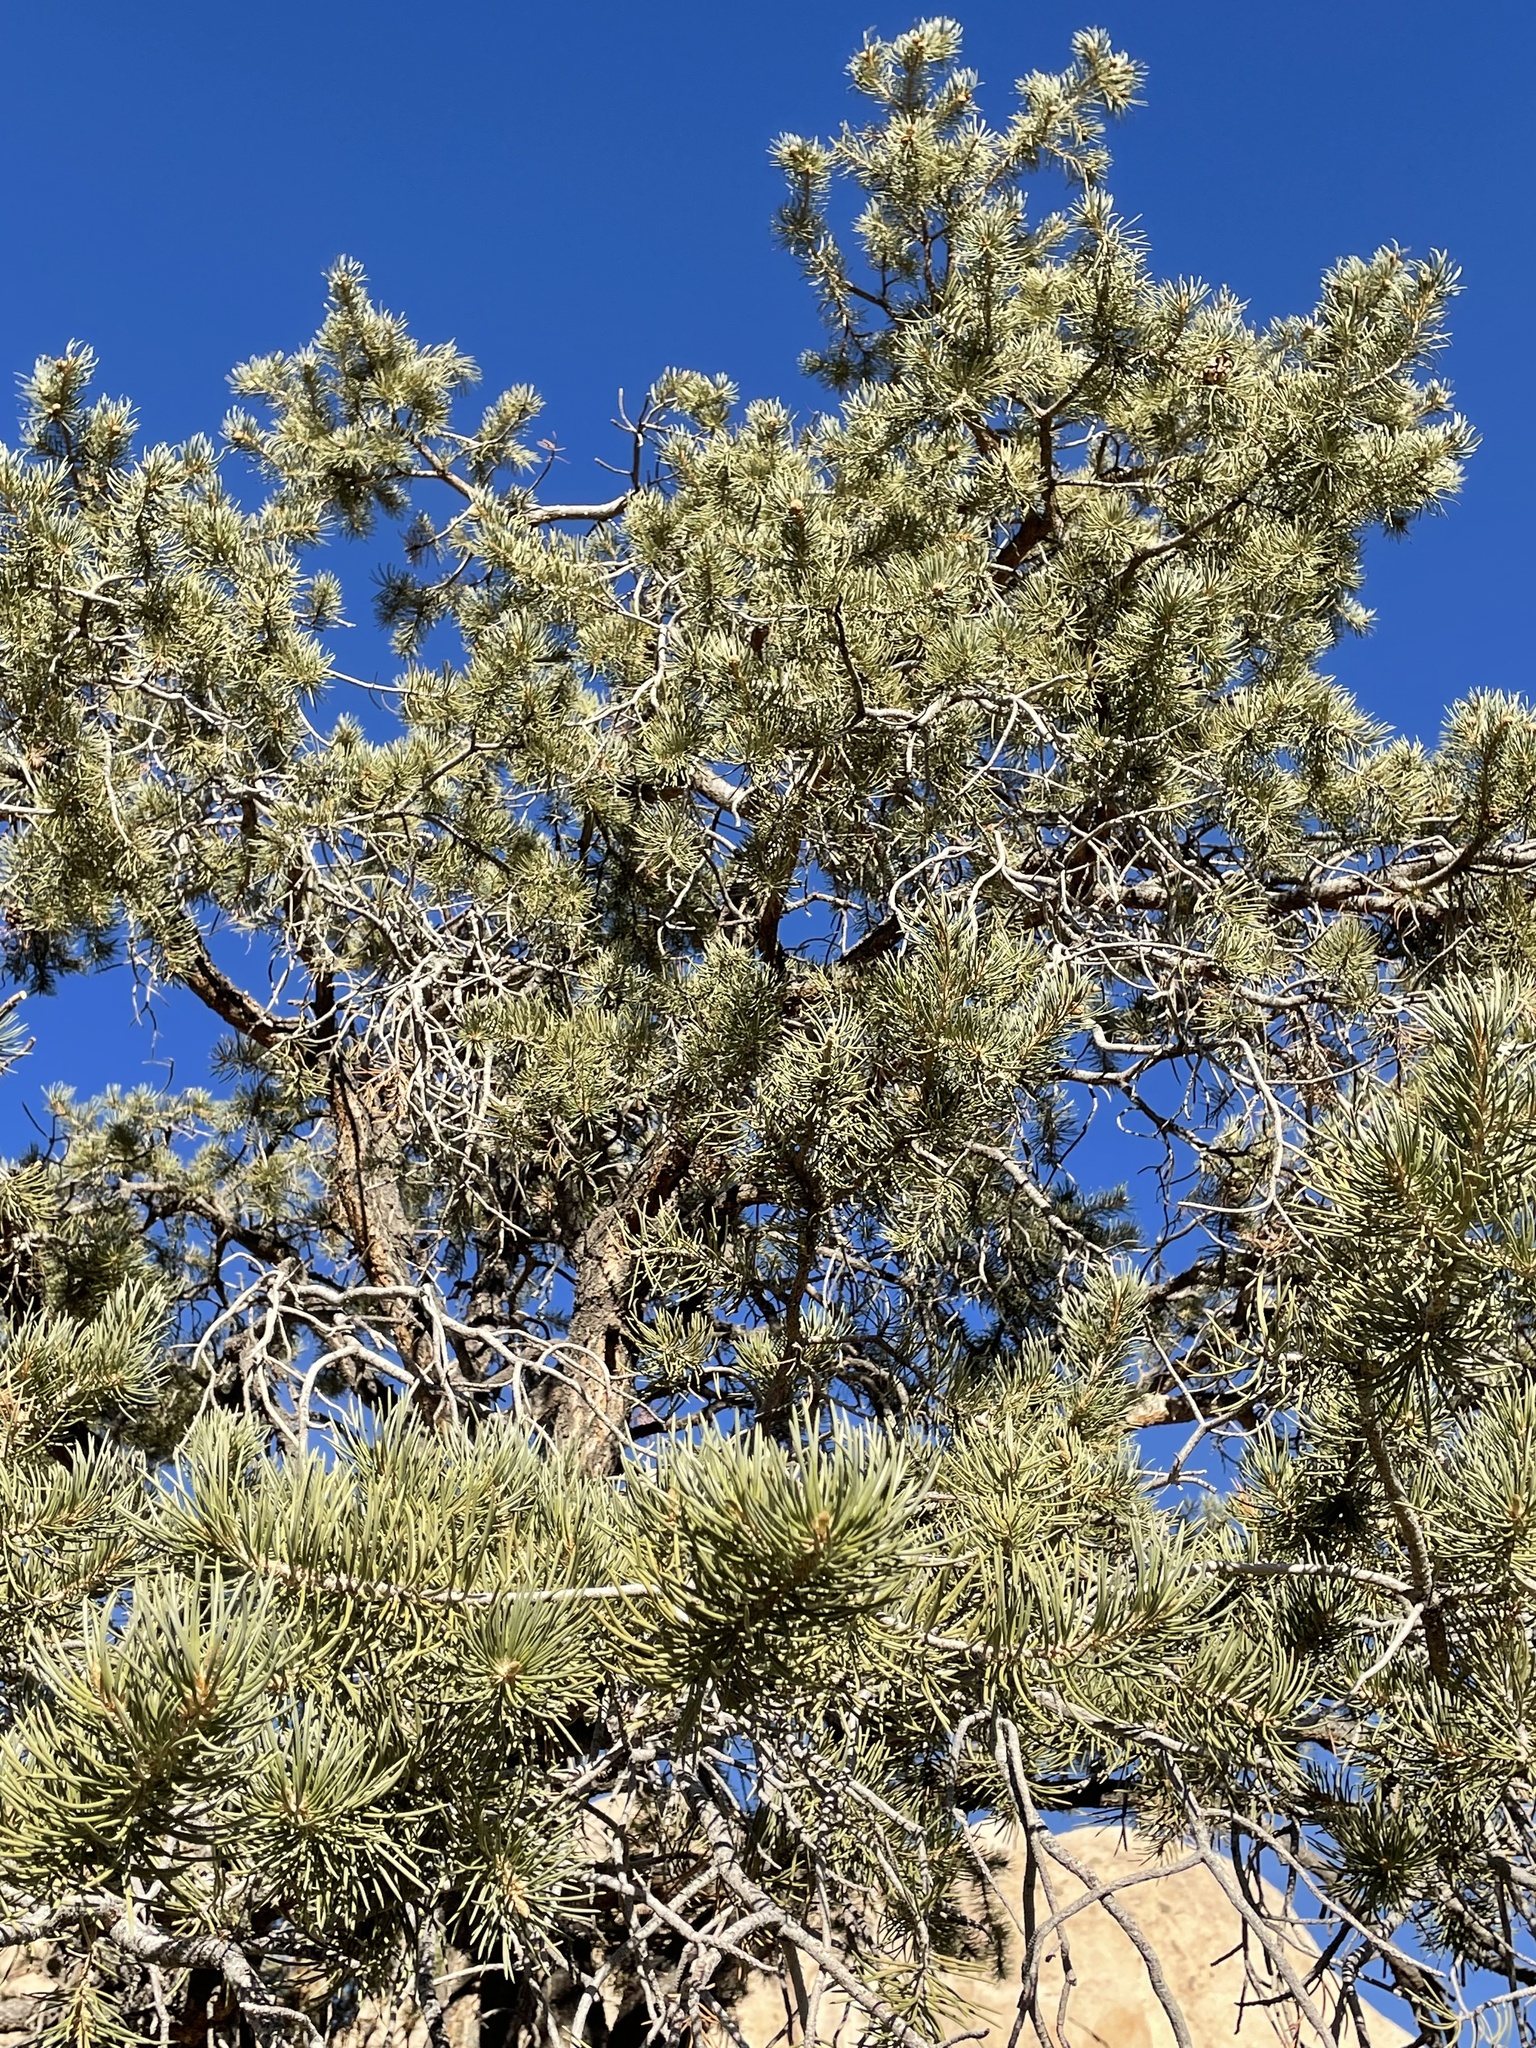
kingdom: Plantae
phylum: Tracheophyta
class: Pinopsida
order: Pinales
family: Pinaceae
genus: Pinus
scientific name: Pinus monophylla
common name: One-leaved nut pine
